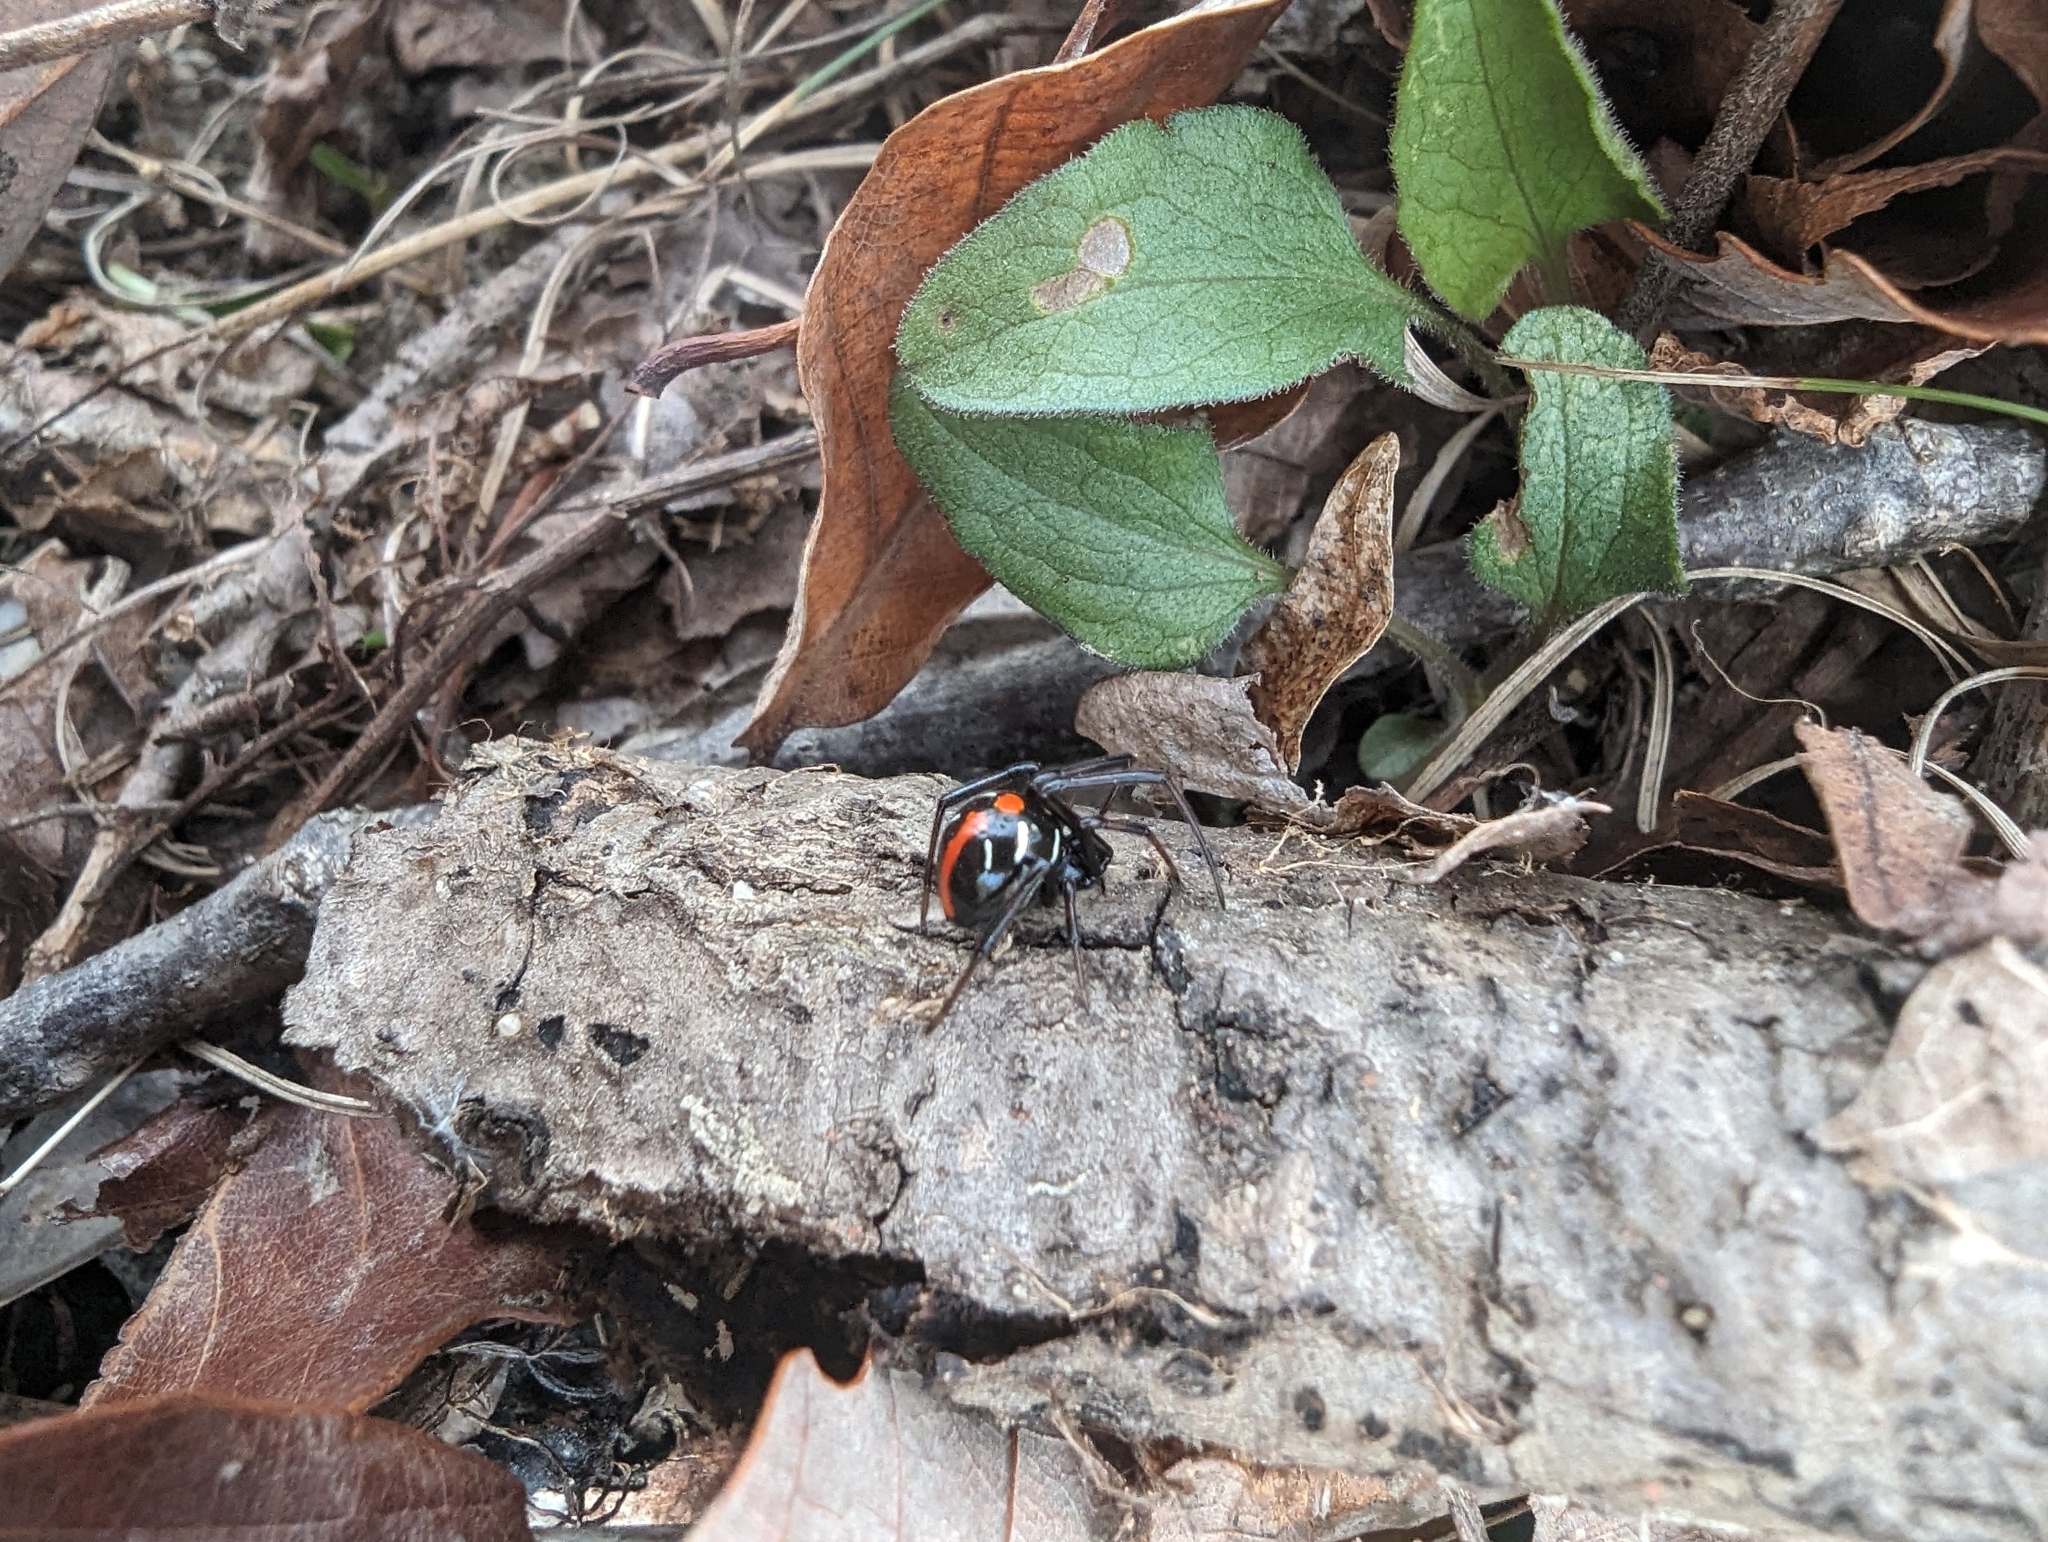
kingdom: Animalia
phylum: Arthropoda
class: Arachnida
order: Araneae
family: Theridiidae
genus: Latrodectus
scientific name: Latrodectus variolus
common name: Northern black widow
